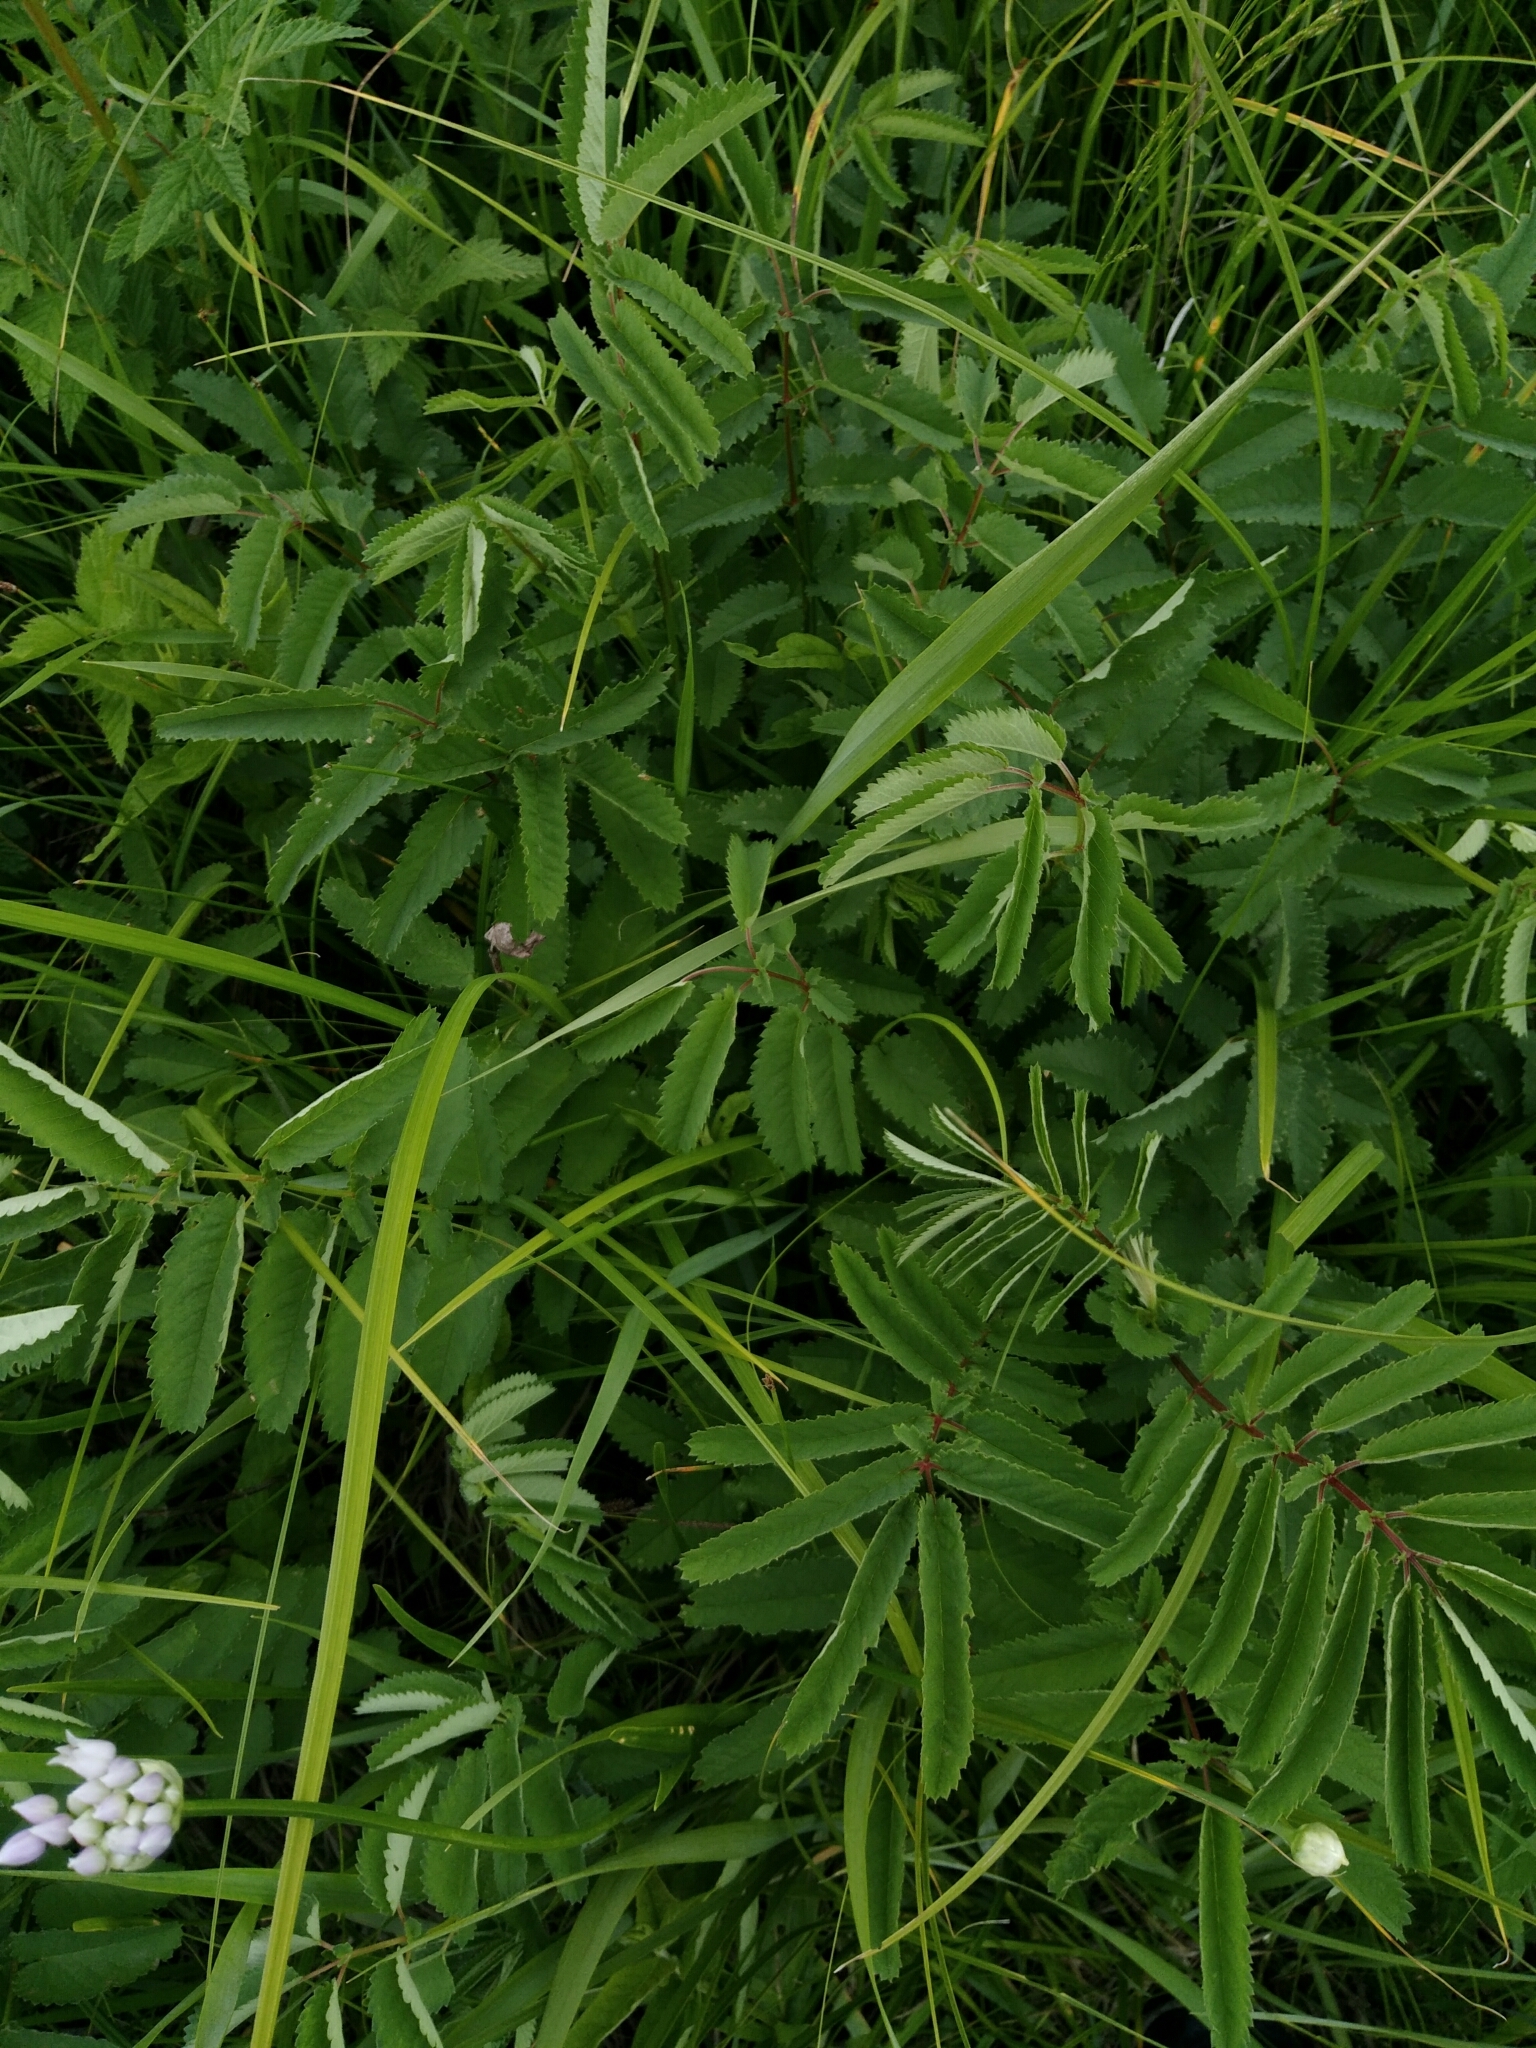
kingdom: Plantae
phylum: Tracheophyta
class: Magnoliopsida
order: Rosales
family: Rosaceae
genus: Sanguisorba
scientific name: Sanguisorba officinalis
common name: Great burnet
